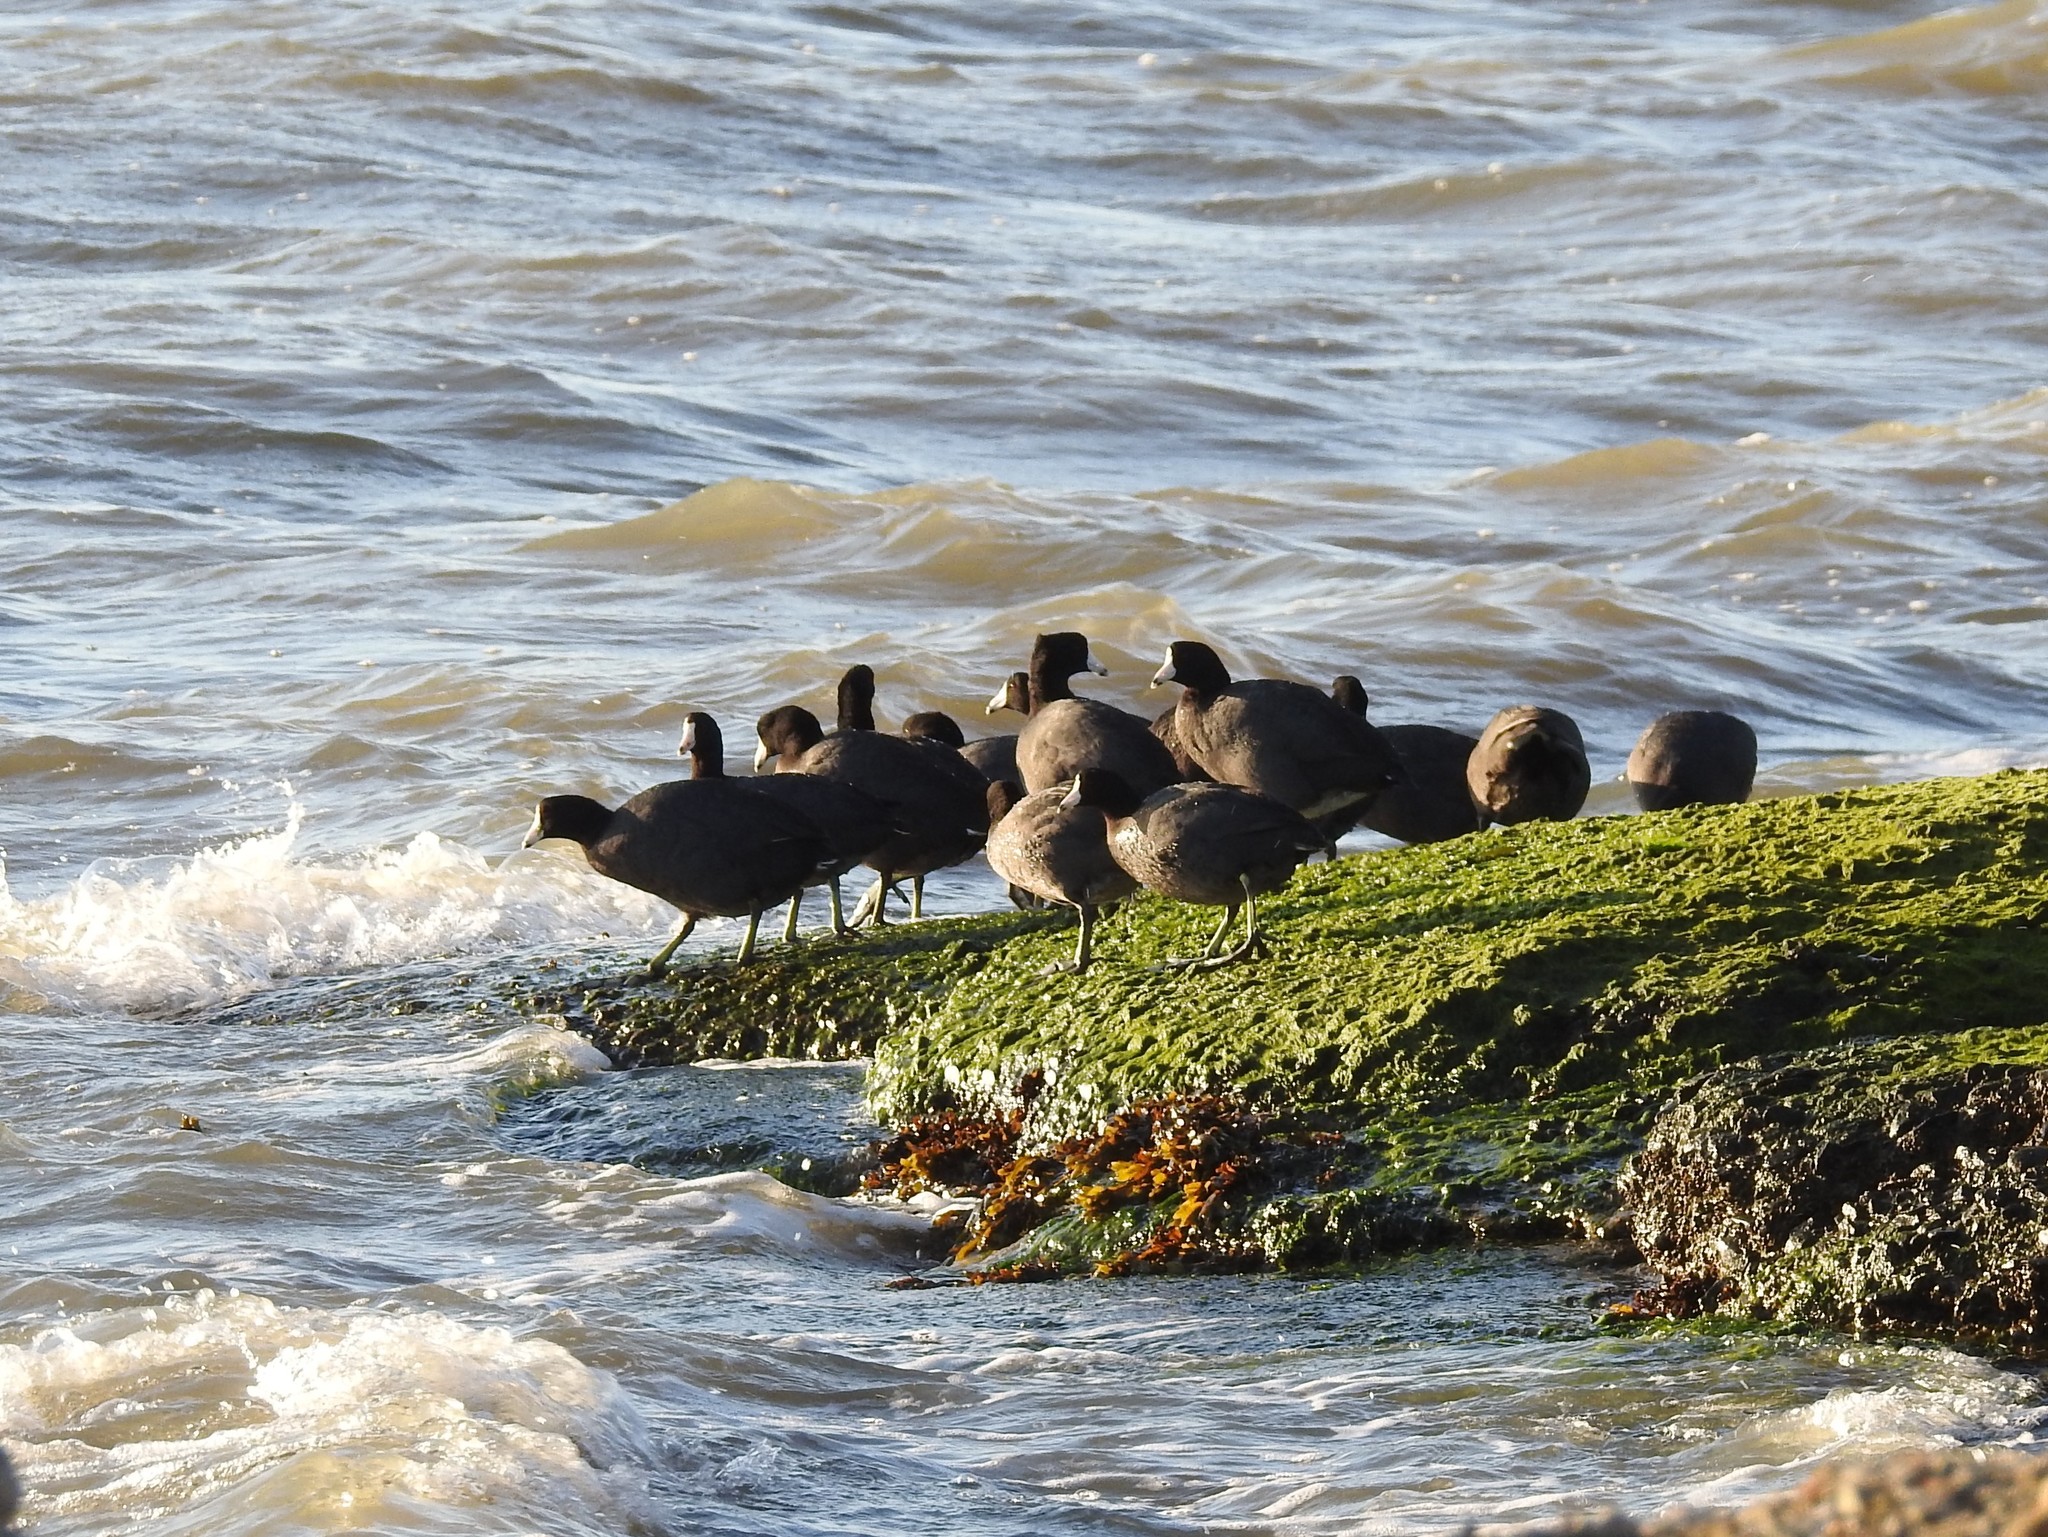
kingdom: Animalia
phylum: Chordata
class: Aves
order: Gruiformes
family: Rallidae
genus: Fulica
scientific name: Fulica americana
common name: American coot
